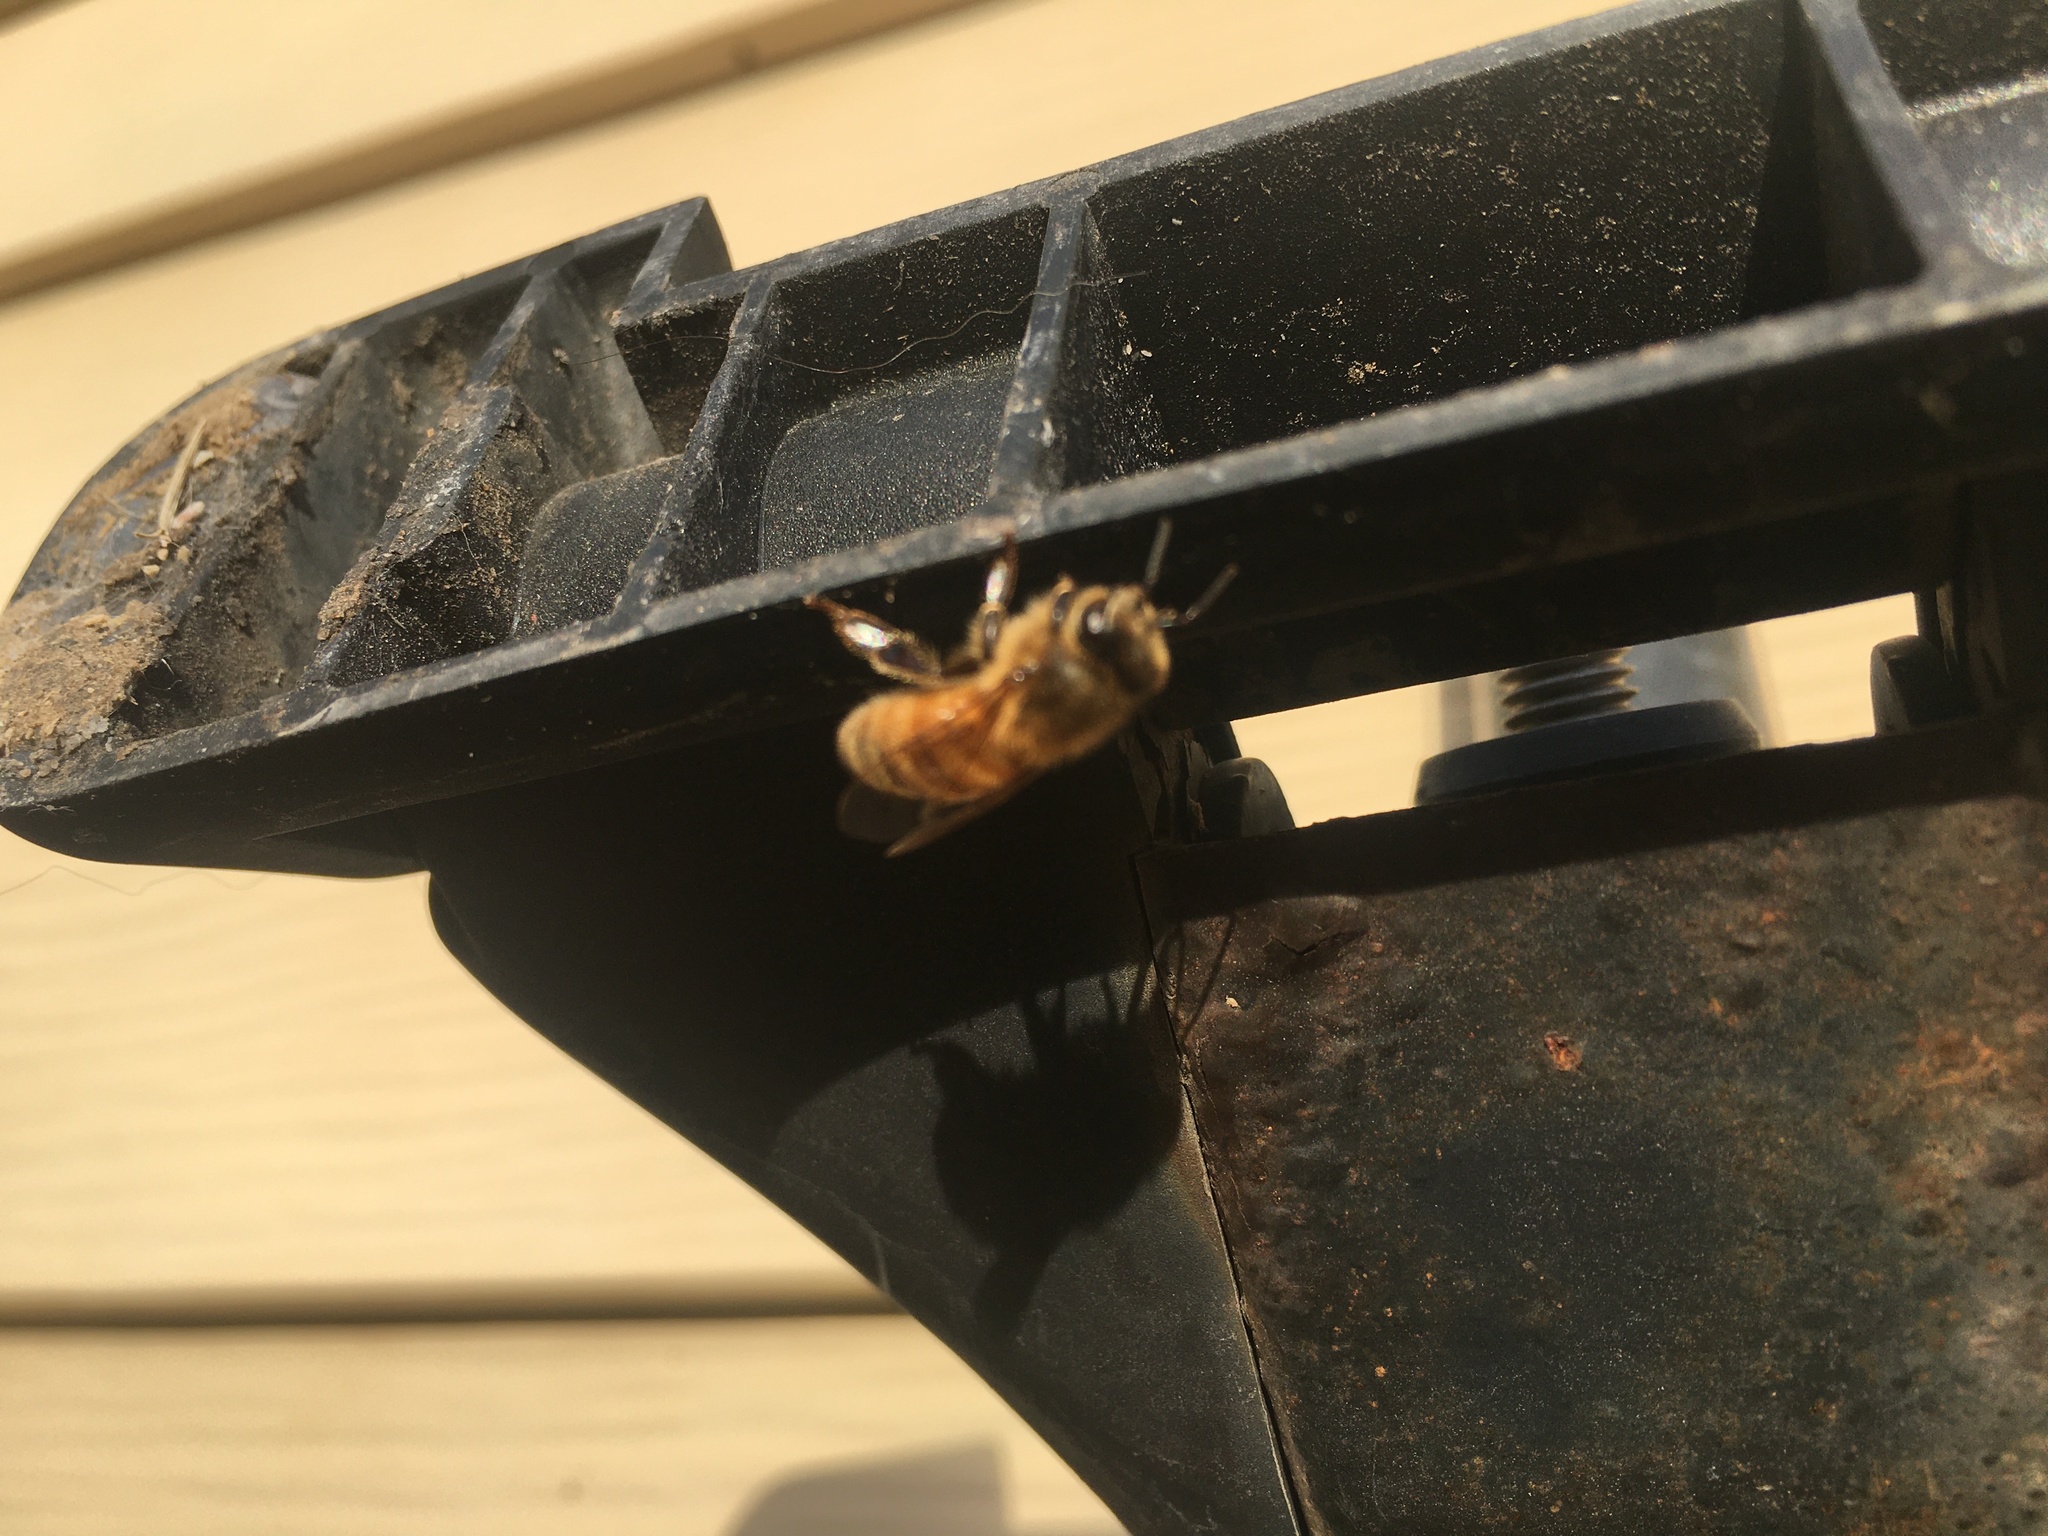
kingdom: Animalia
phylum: Arthropoda
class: Insecta
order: Hymenoptera
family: Apidae
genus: Apis
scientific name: Apis mellifera
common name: Honey bee
